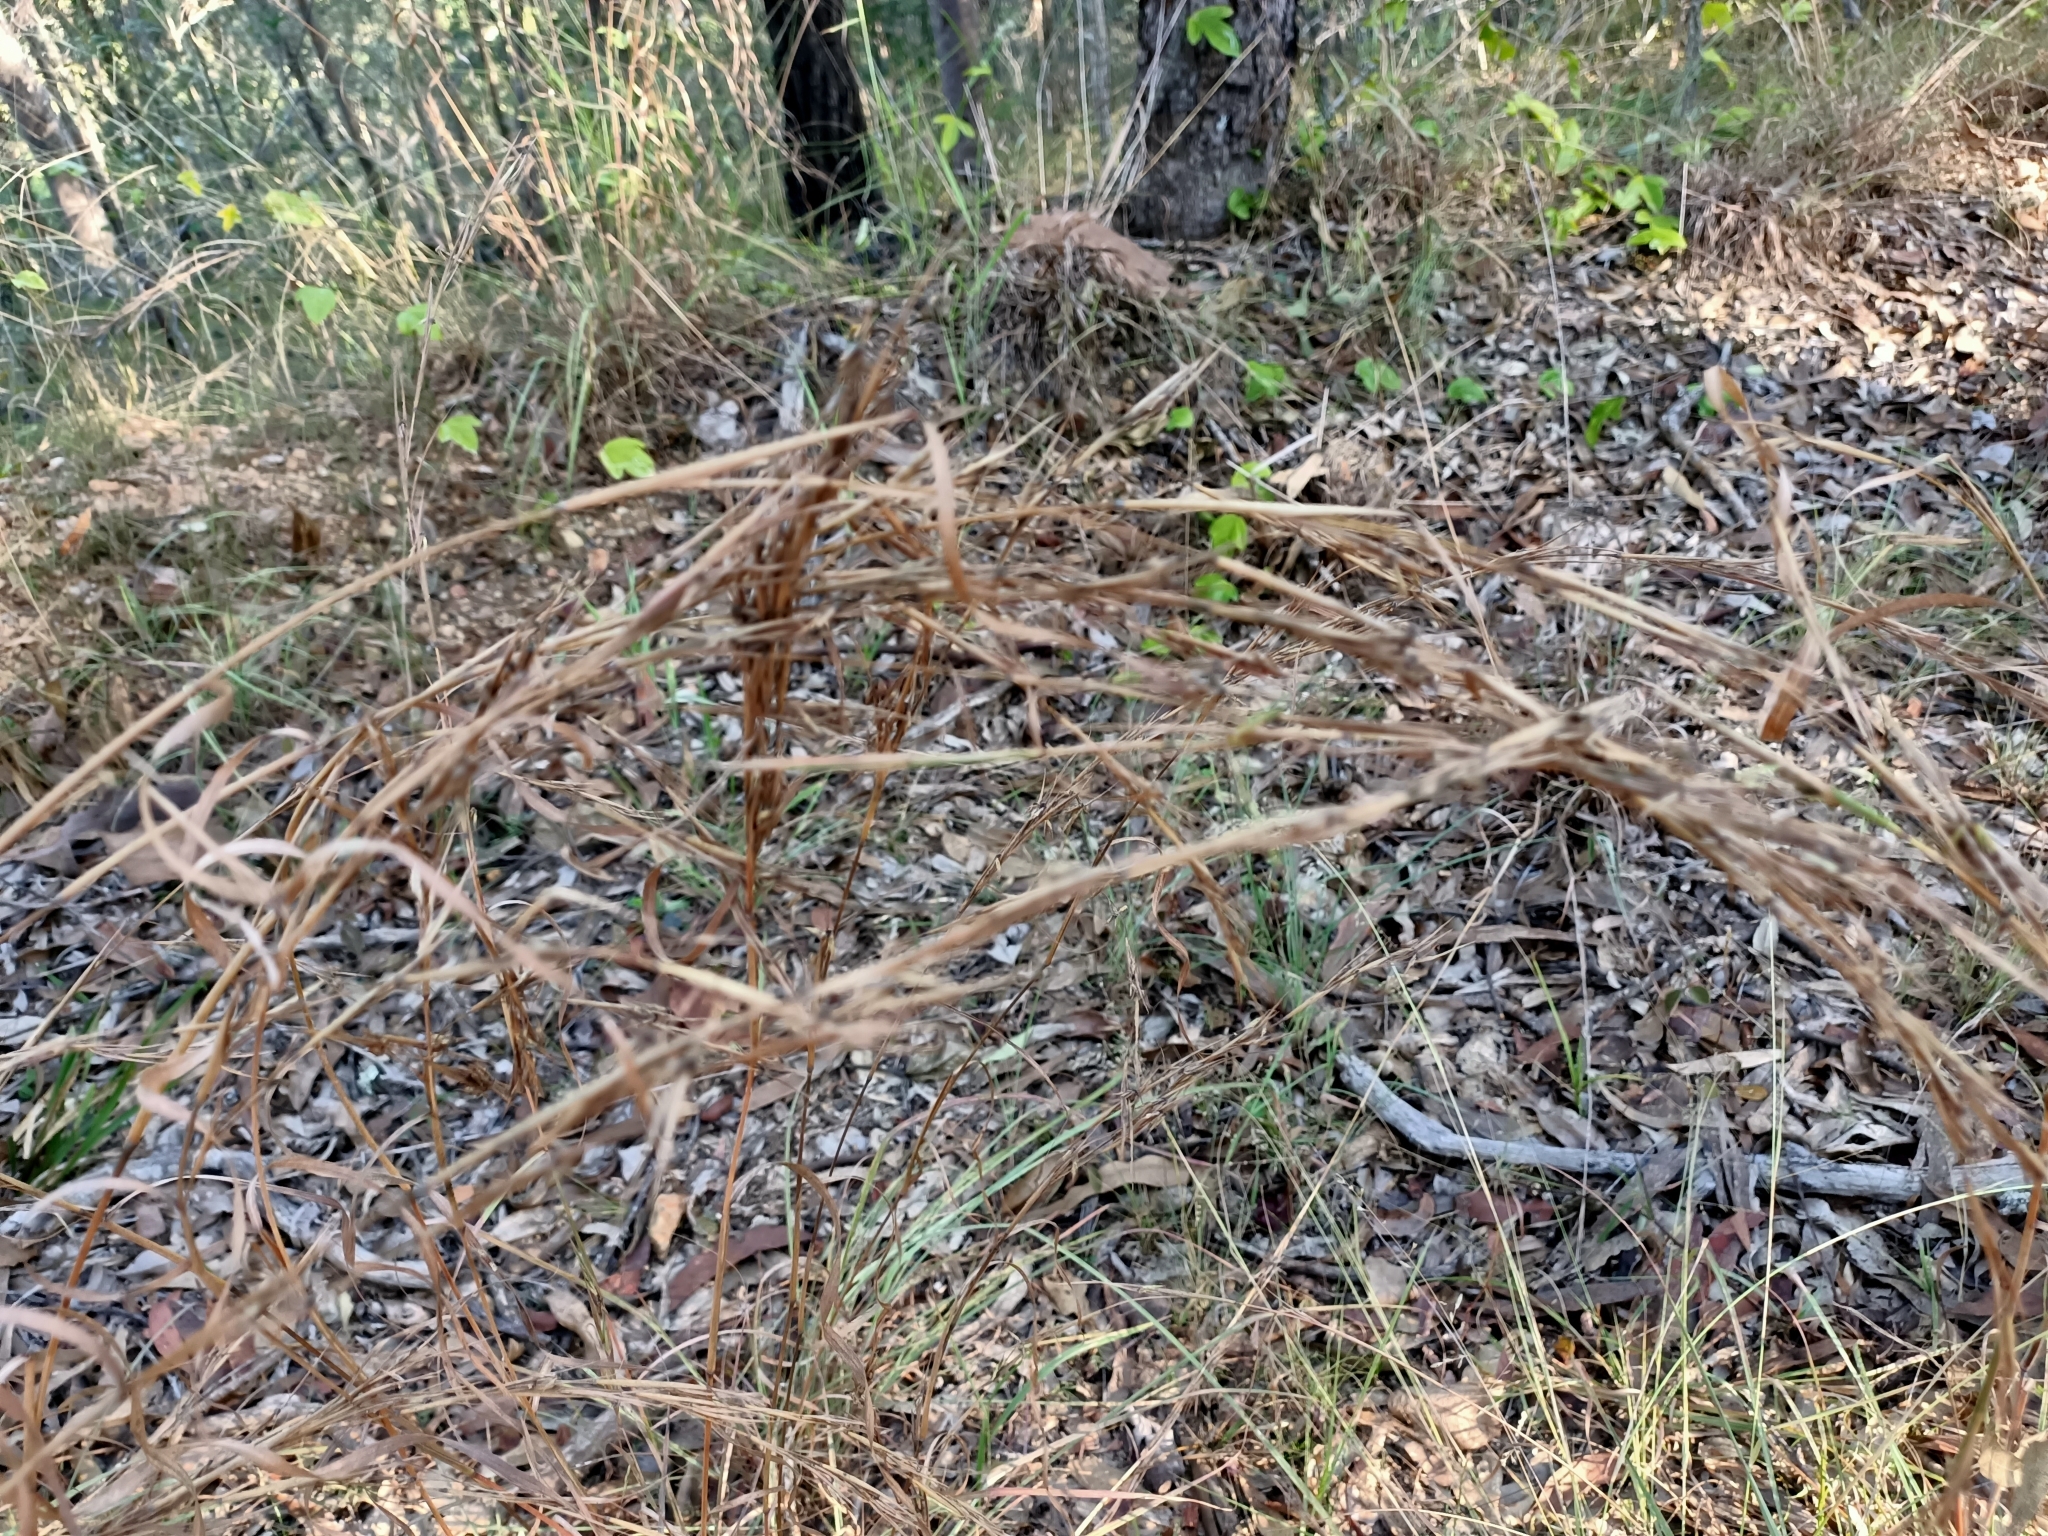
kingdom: Plantae
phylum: Tracheophyta
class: Liliopsida
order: Poales
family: Poaceae
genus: Cymbopogon
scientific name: Cymbopogon refractus
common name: Barbwire grass
